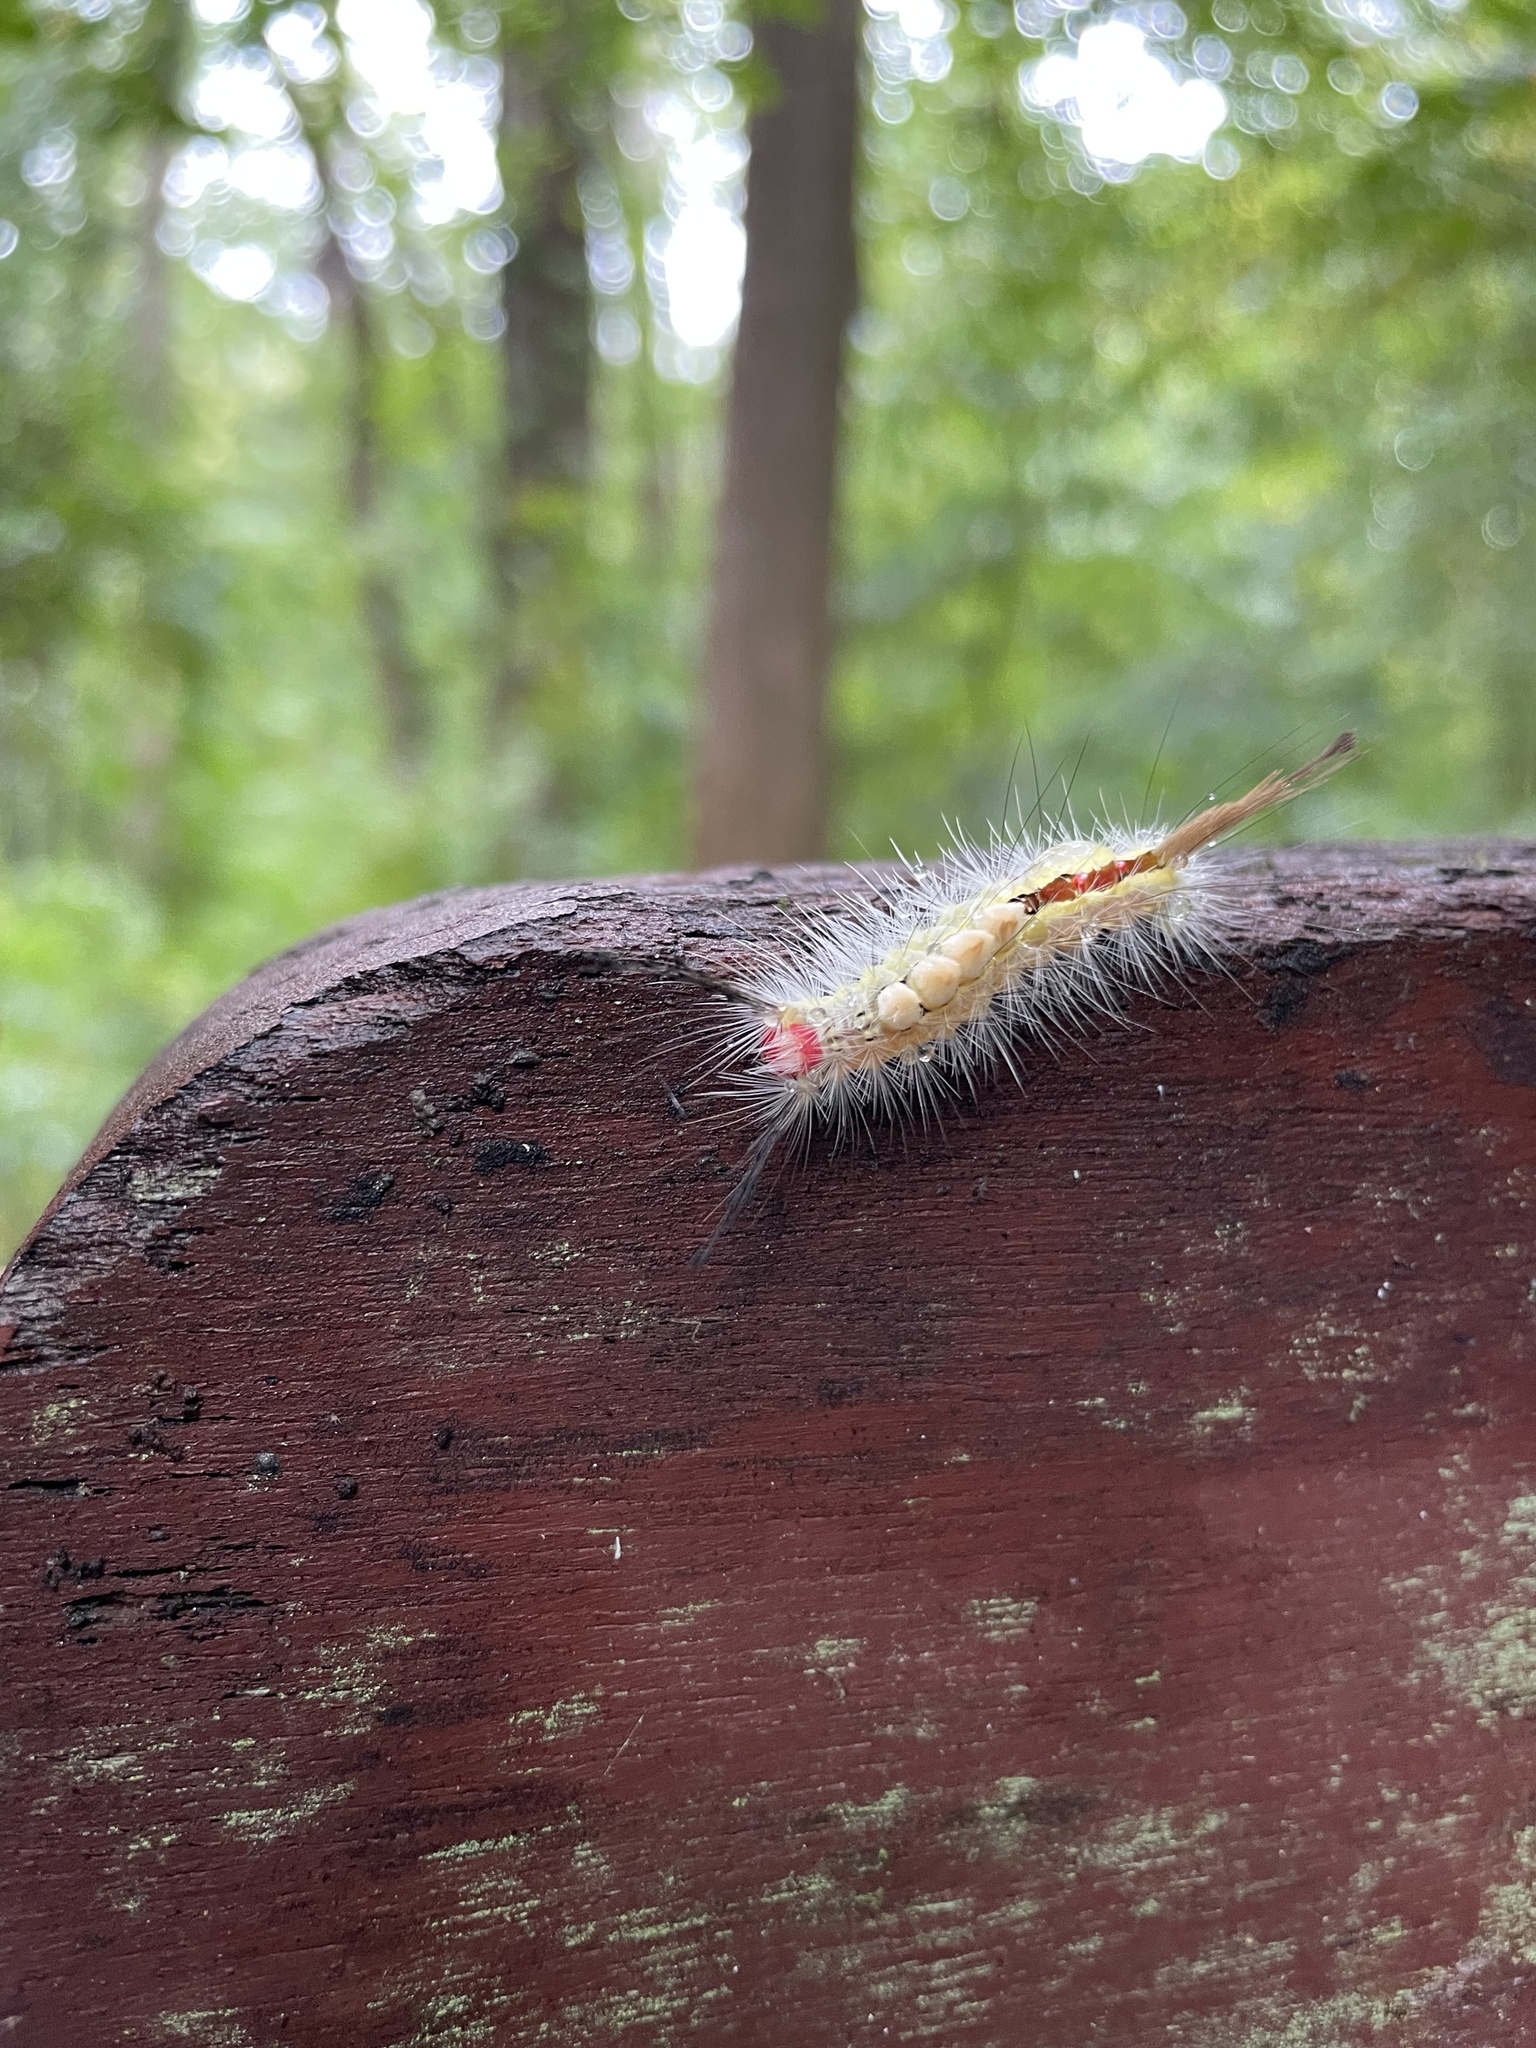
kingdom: Animalia
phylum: Arthropoda
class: Insecta
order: Lepidoptera
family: Erebidae
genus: Orgyia
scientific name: Orgyia leucostigma
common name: White-marked tussock moth
